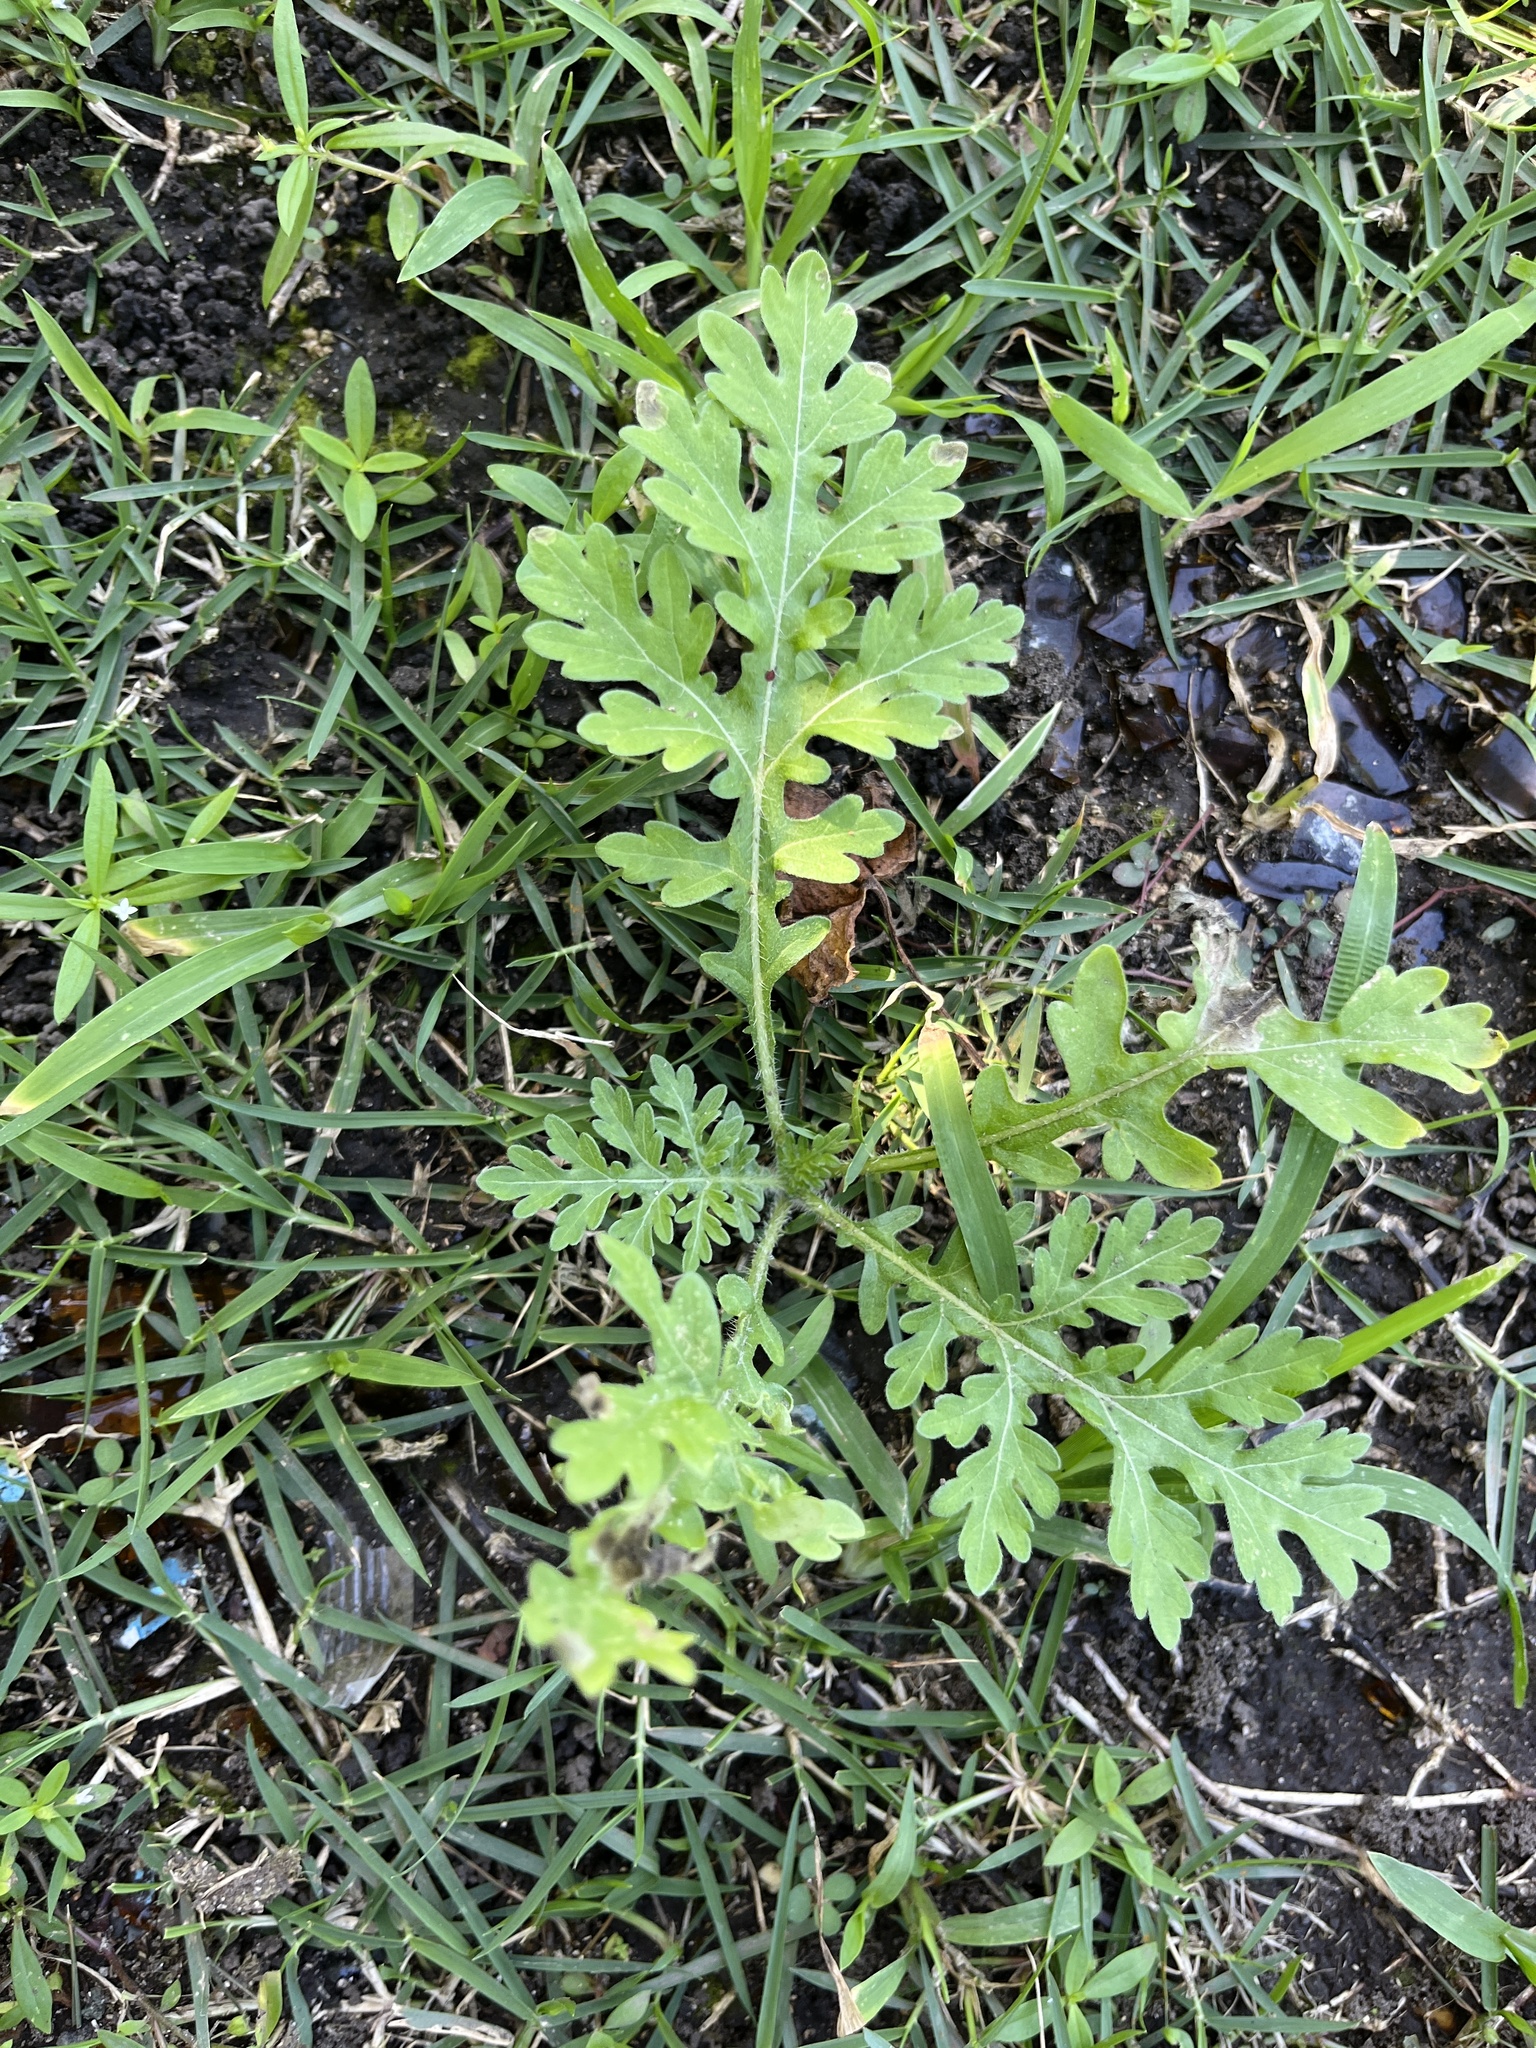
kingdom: Plantae
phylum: Tracheophyta
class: Magnoliopsida
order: Asterales
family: Asteraceae
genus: Parthenium
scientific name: Parthenium hysterophorus
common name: Santa maria feverfew
